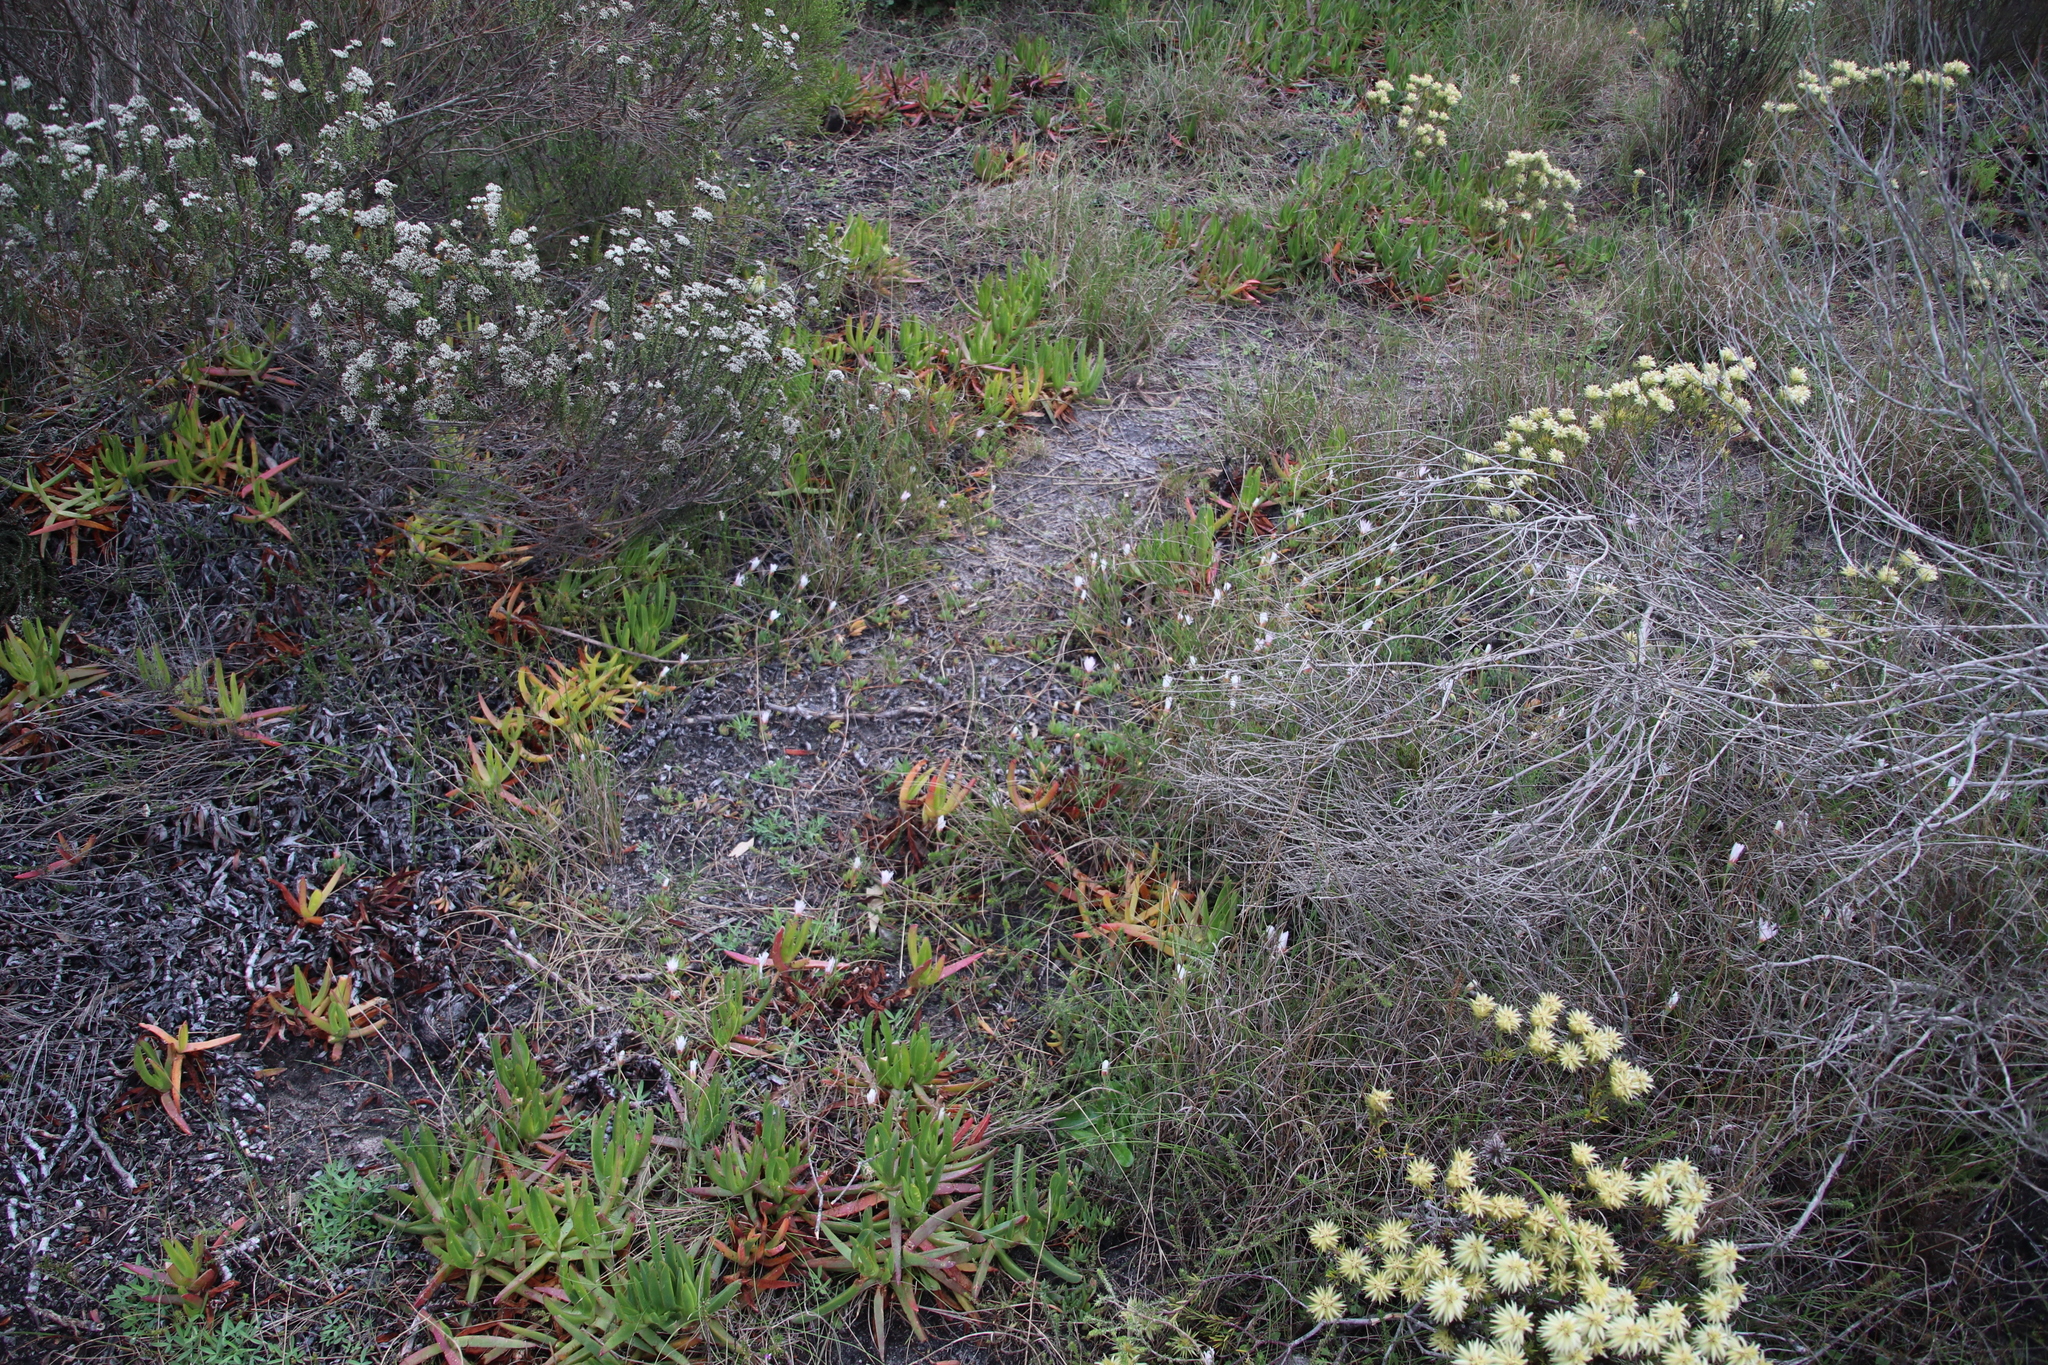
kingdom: Plantae
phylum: Tracheophyta
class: Magnoliopsida
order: Caryophyllales
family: Aizoaceae
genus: Lampranthus
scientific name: Lampranthus reptans
